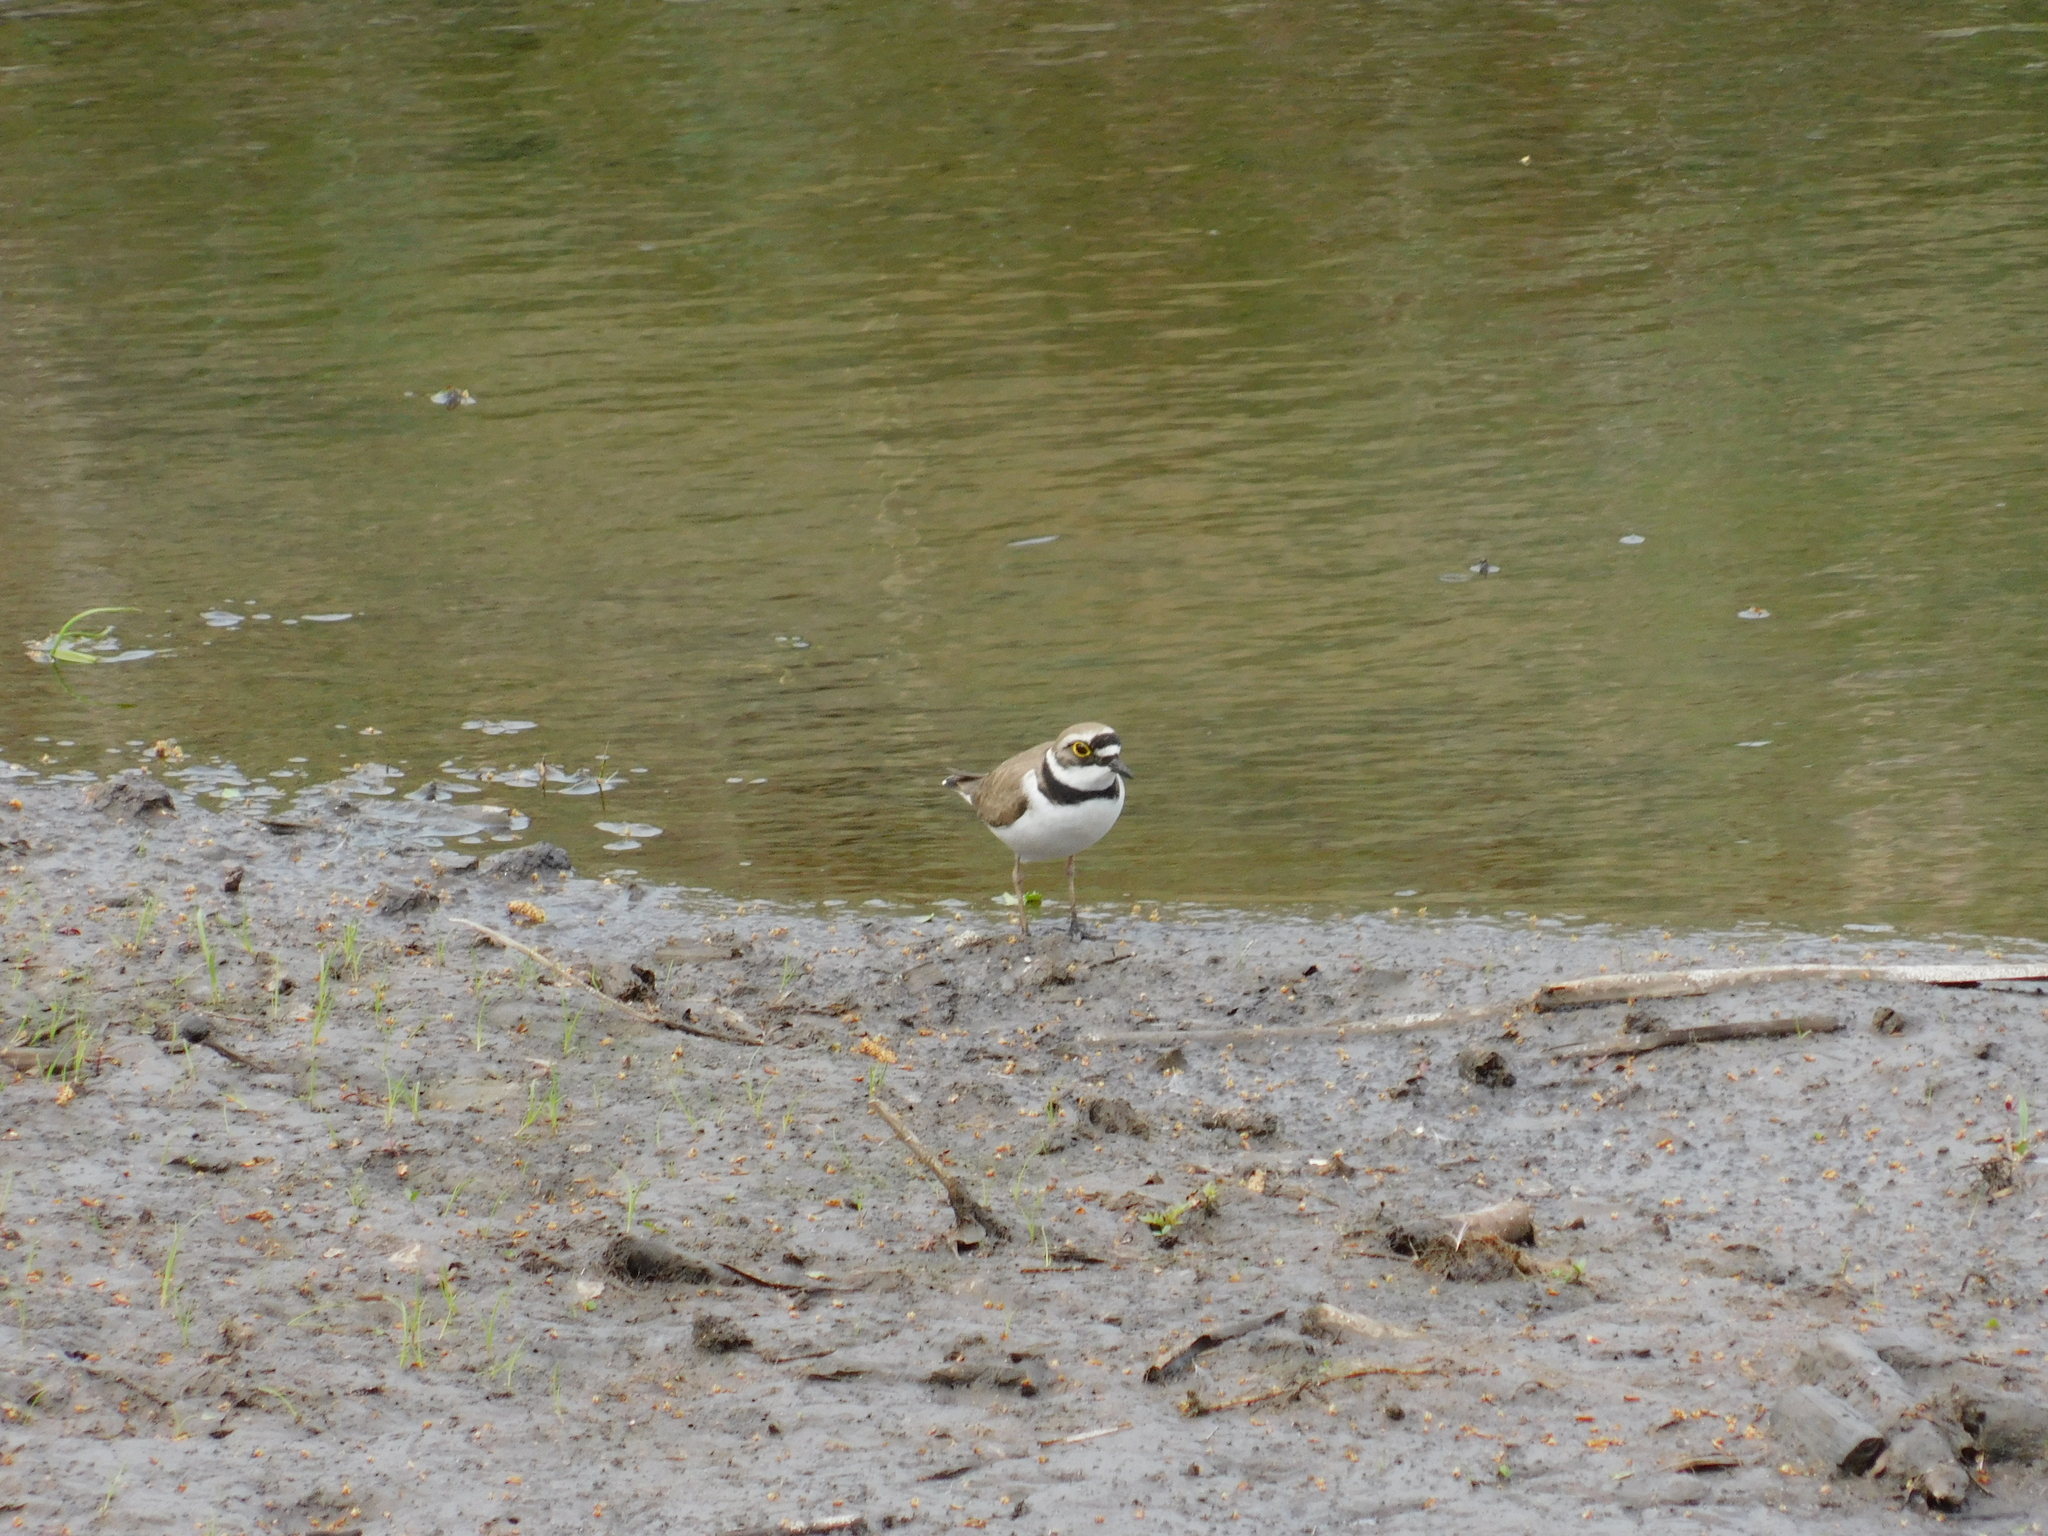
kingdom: Animalia
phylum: Chordata
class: Aves
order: Charadriiformes
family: Charadriidae
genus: Charadrius
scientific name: Charadrius dubius
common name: Little ringed plover
